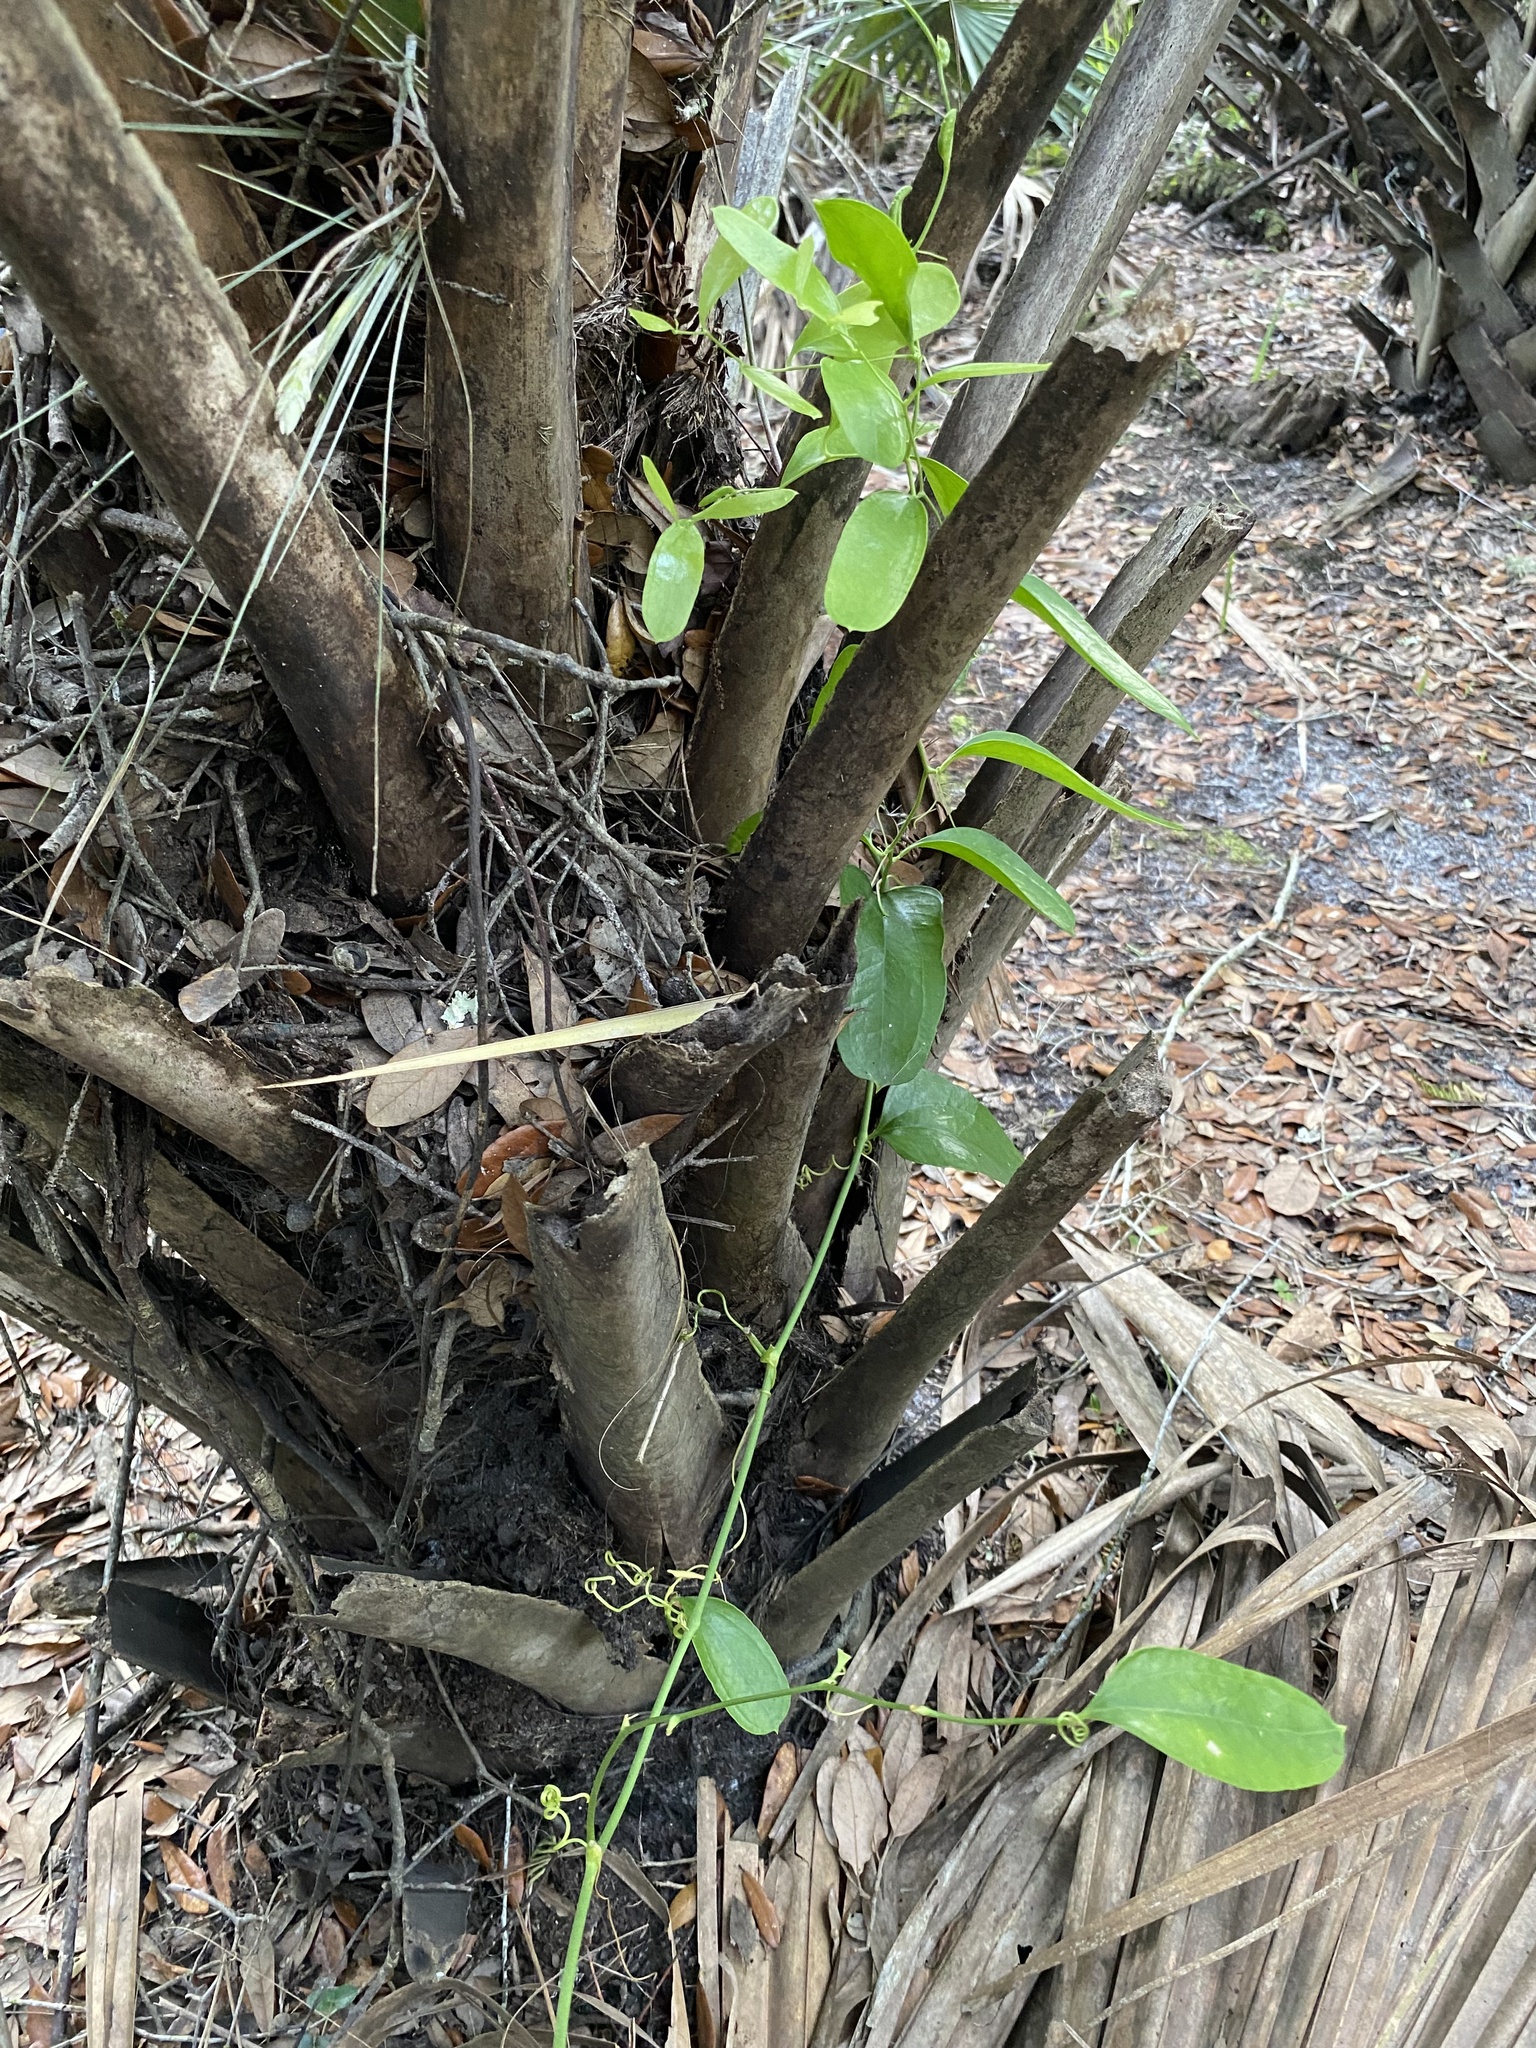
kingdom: Plantae
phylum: Tracheophyta
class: Liliopsida
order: Liliales
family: Smilacaceae
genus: Smilax
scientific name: Smilax auriculata
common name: Wild bamboo
